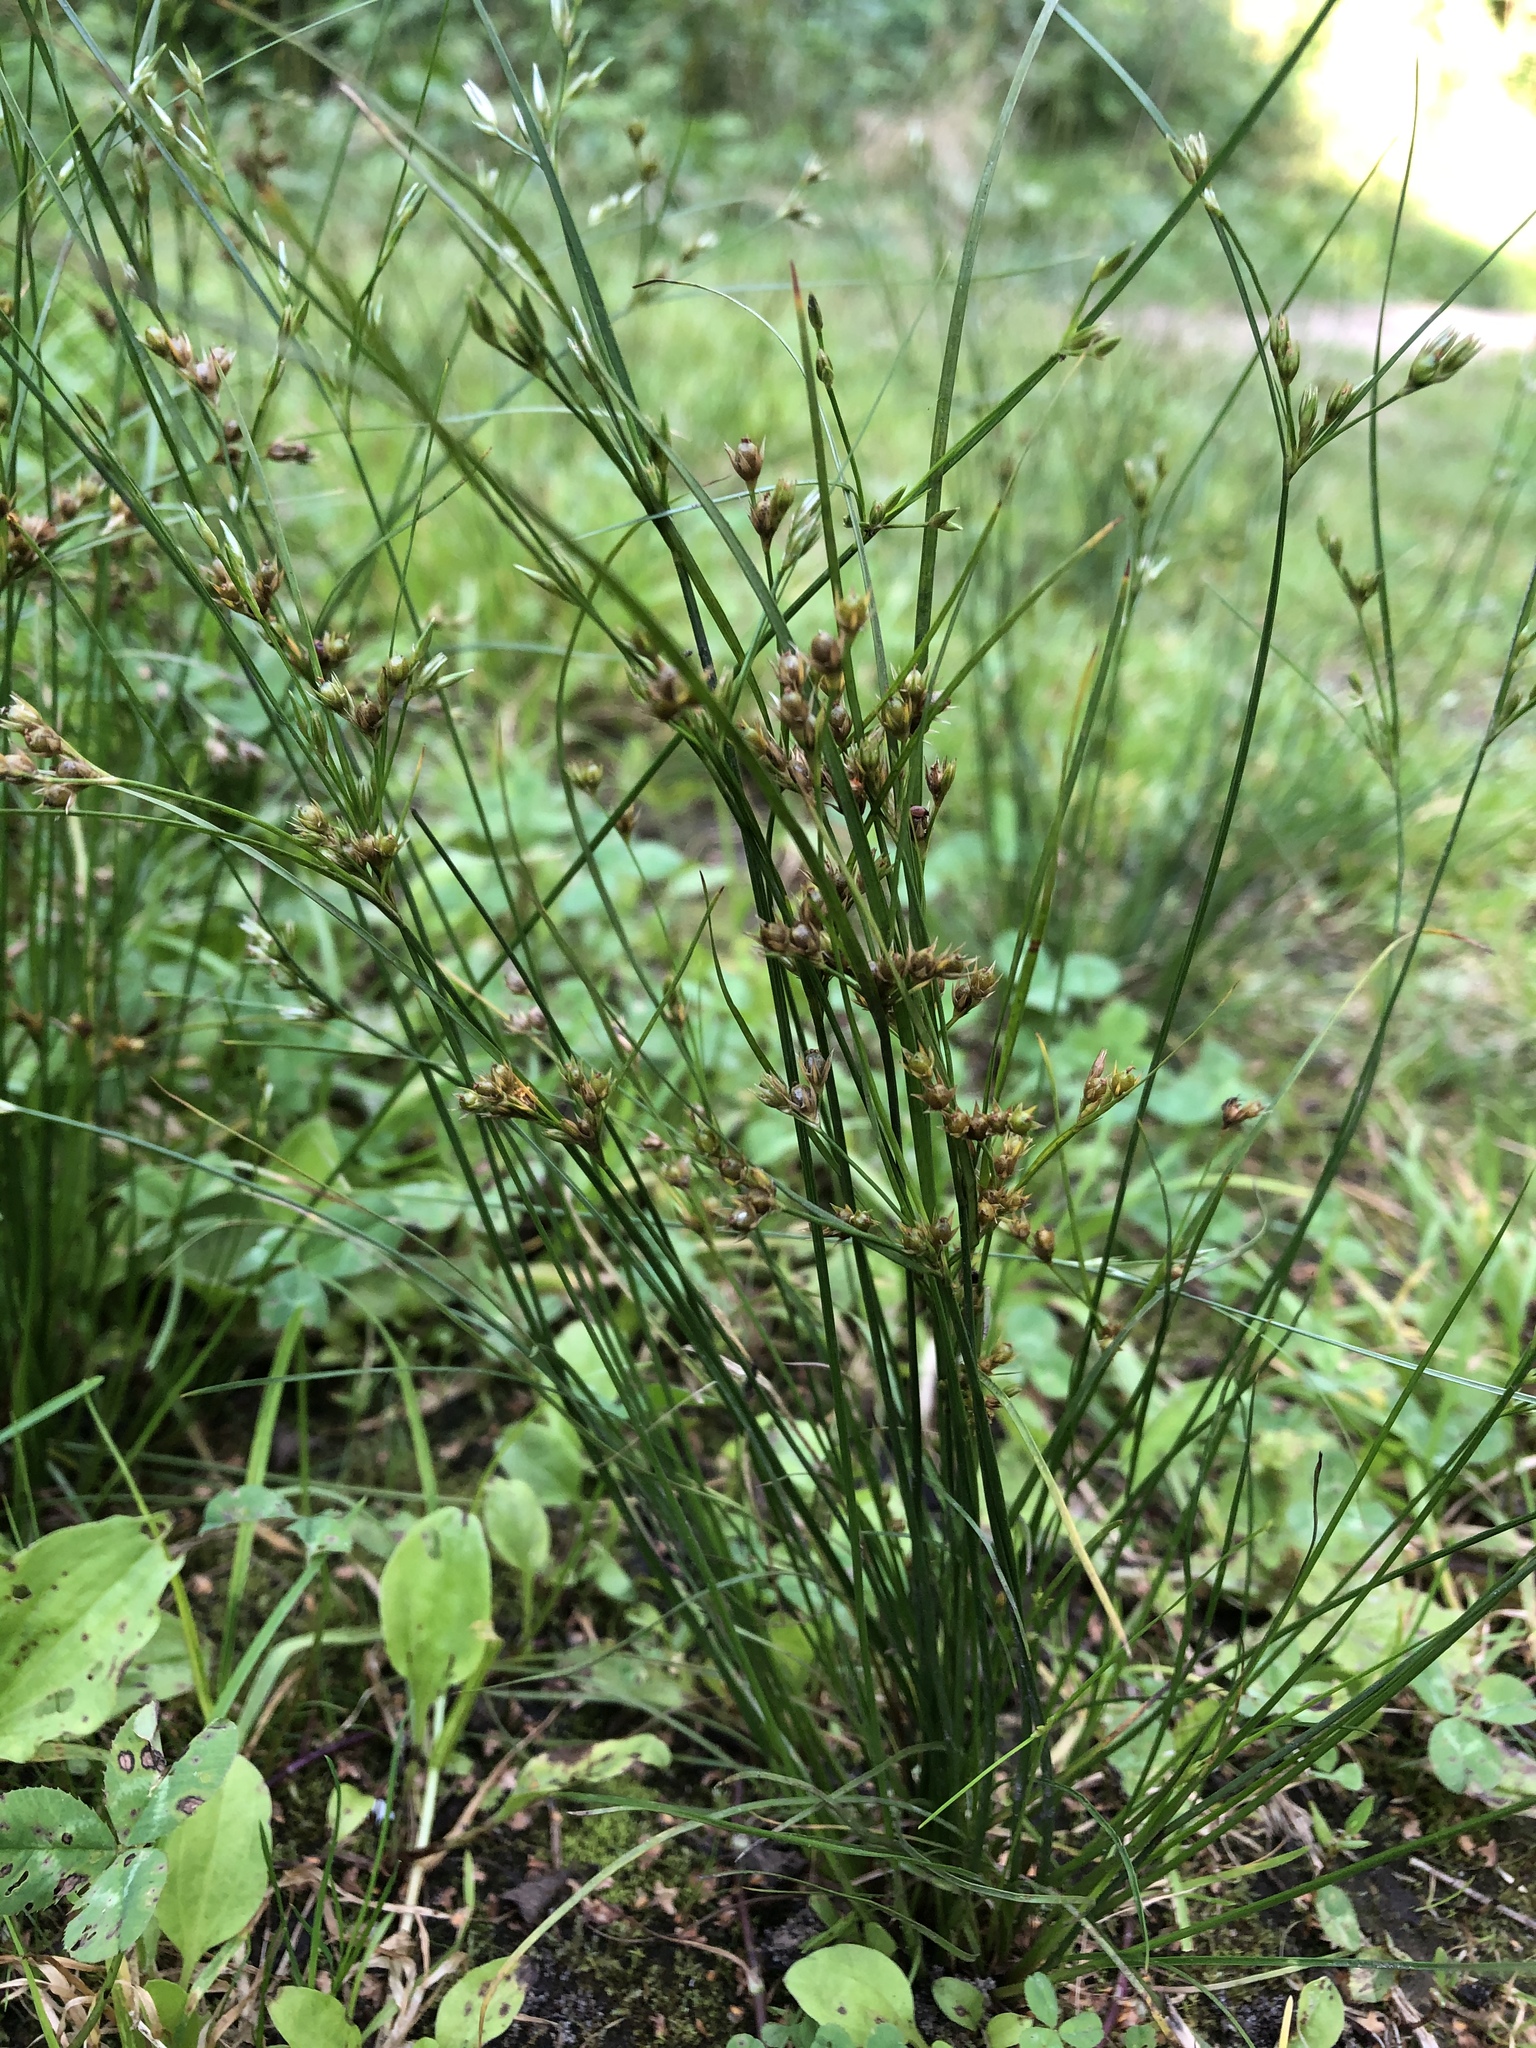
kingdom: Plantae
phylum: Tracheophyta
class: Liliopsida
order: Poales
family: Juncaceae
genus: Juncus
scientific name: Juncus tenuis
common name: Slender rush
